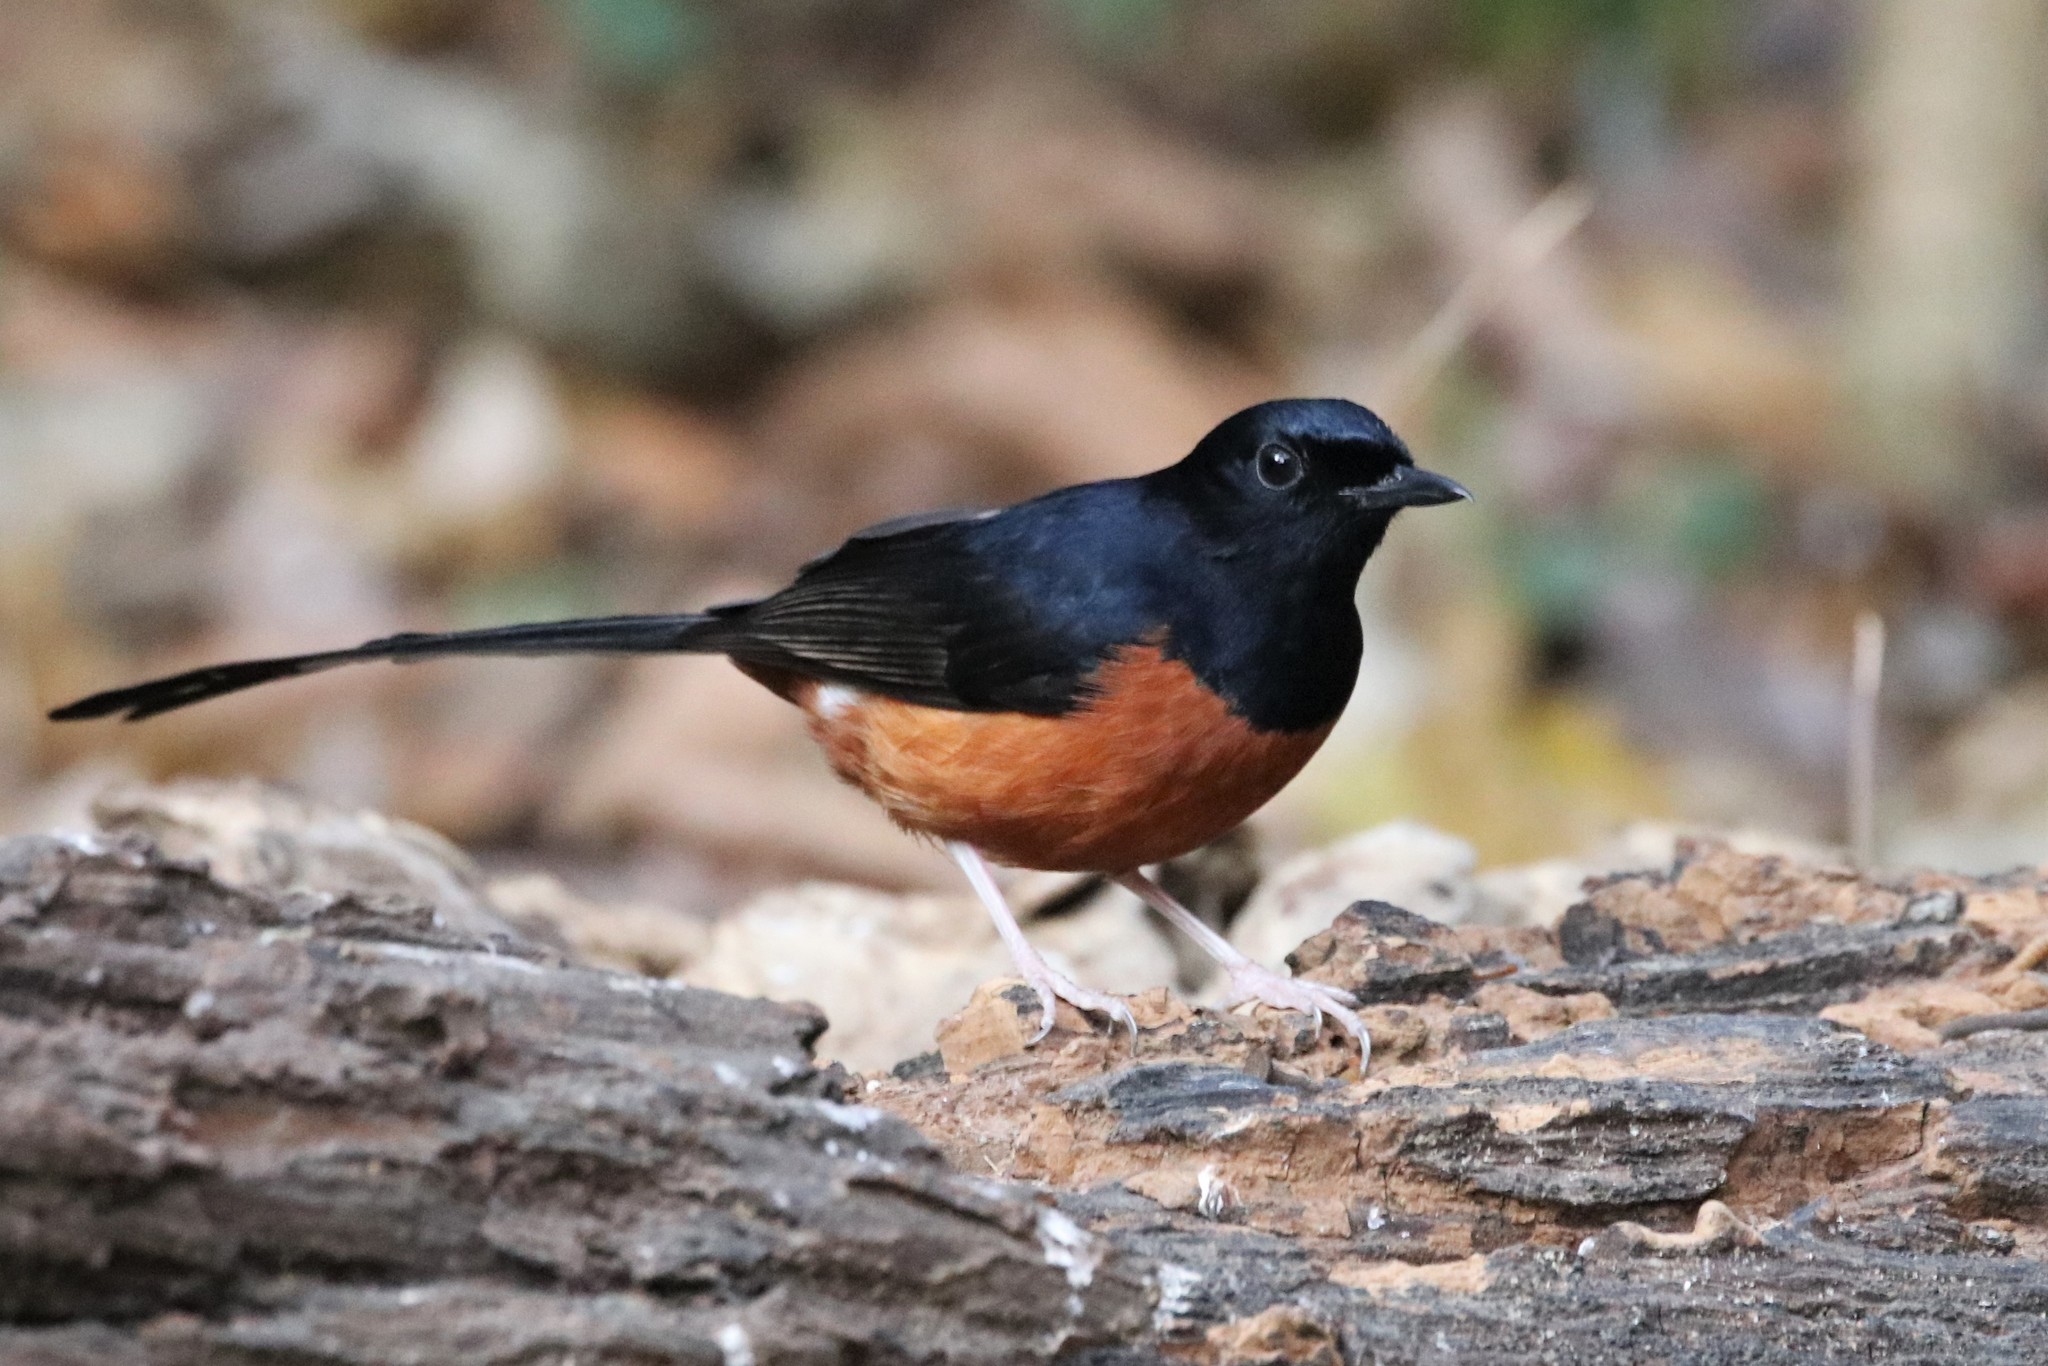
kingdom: Animalia
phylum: Chordata
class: Aves
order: Passeriformes
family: Muscicapidae
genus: Copsychus
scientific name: Copsychus malabaricus
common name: White-rumped shama
